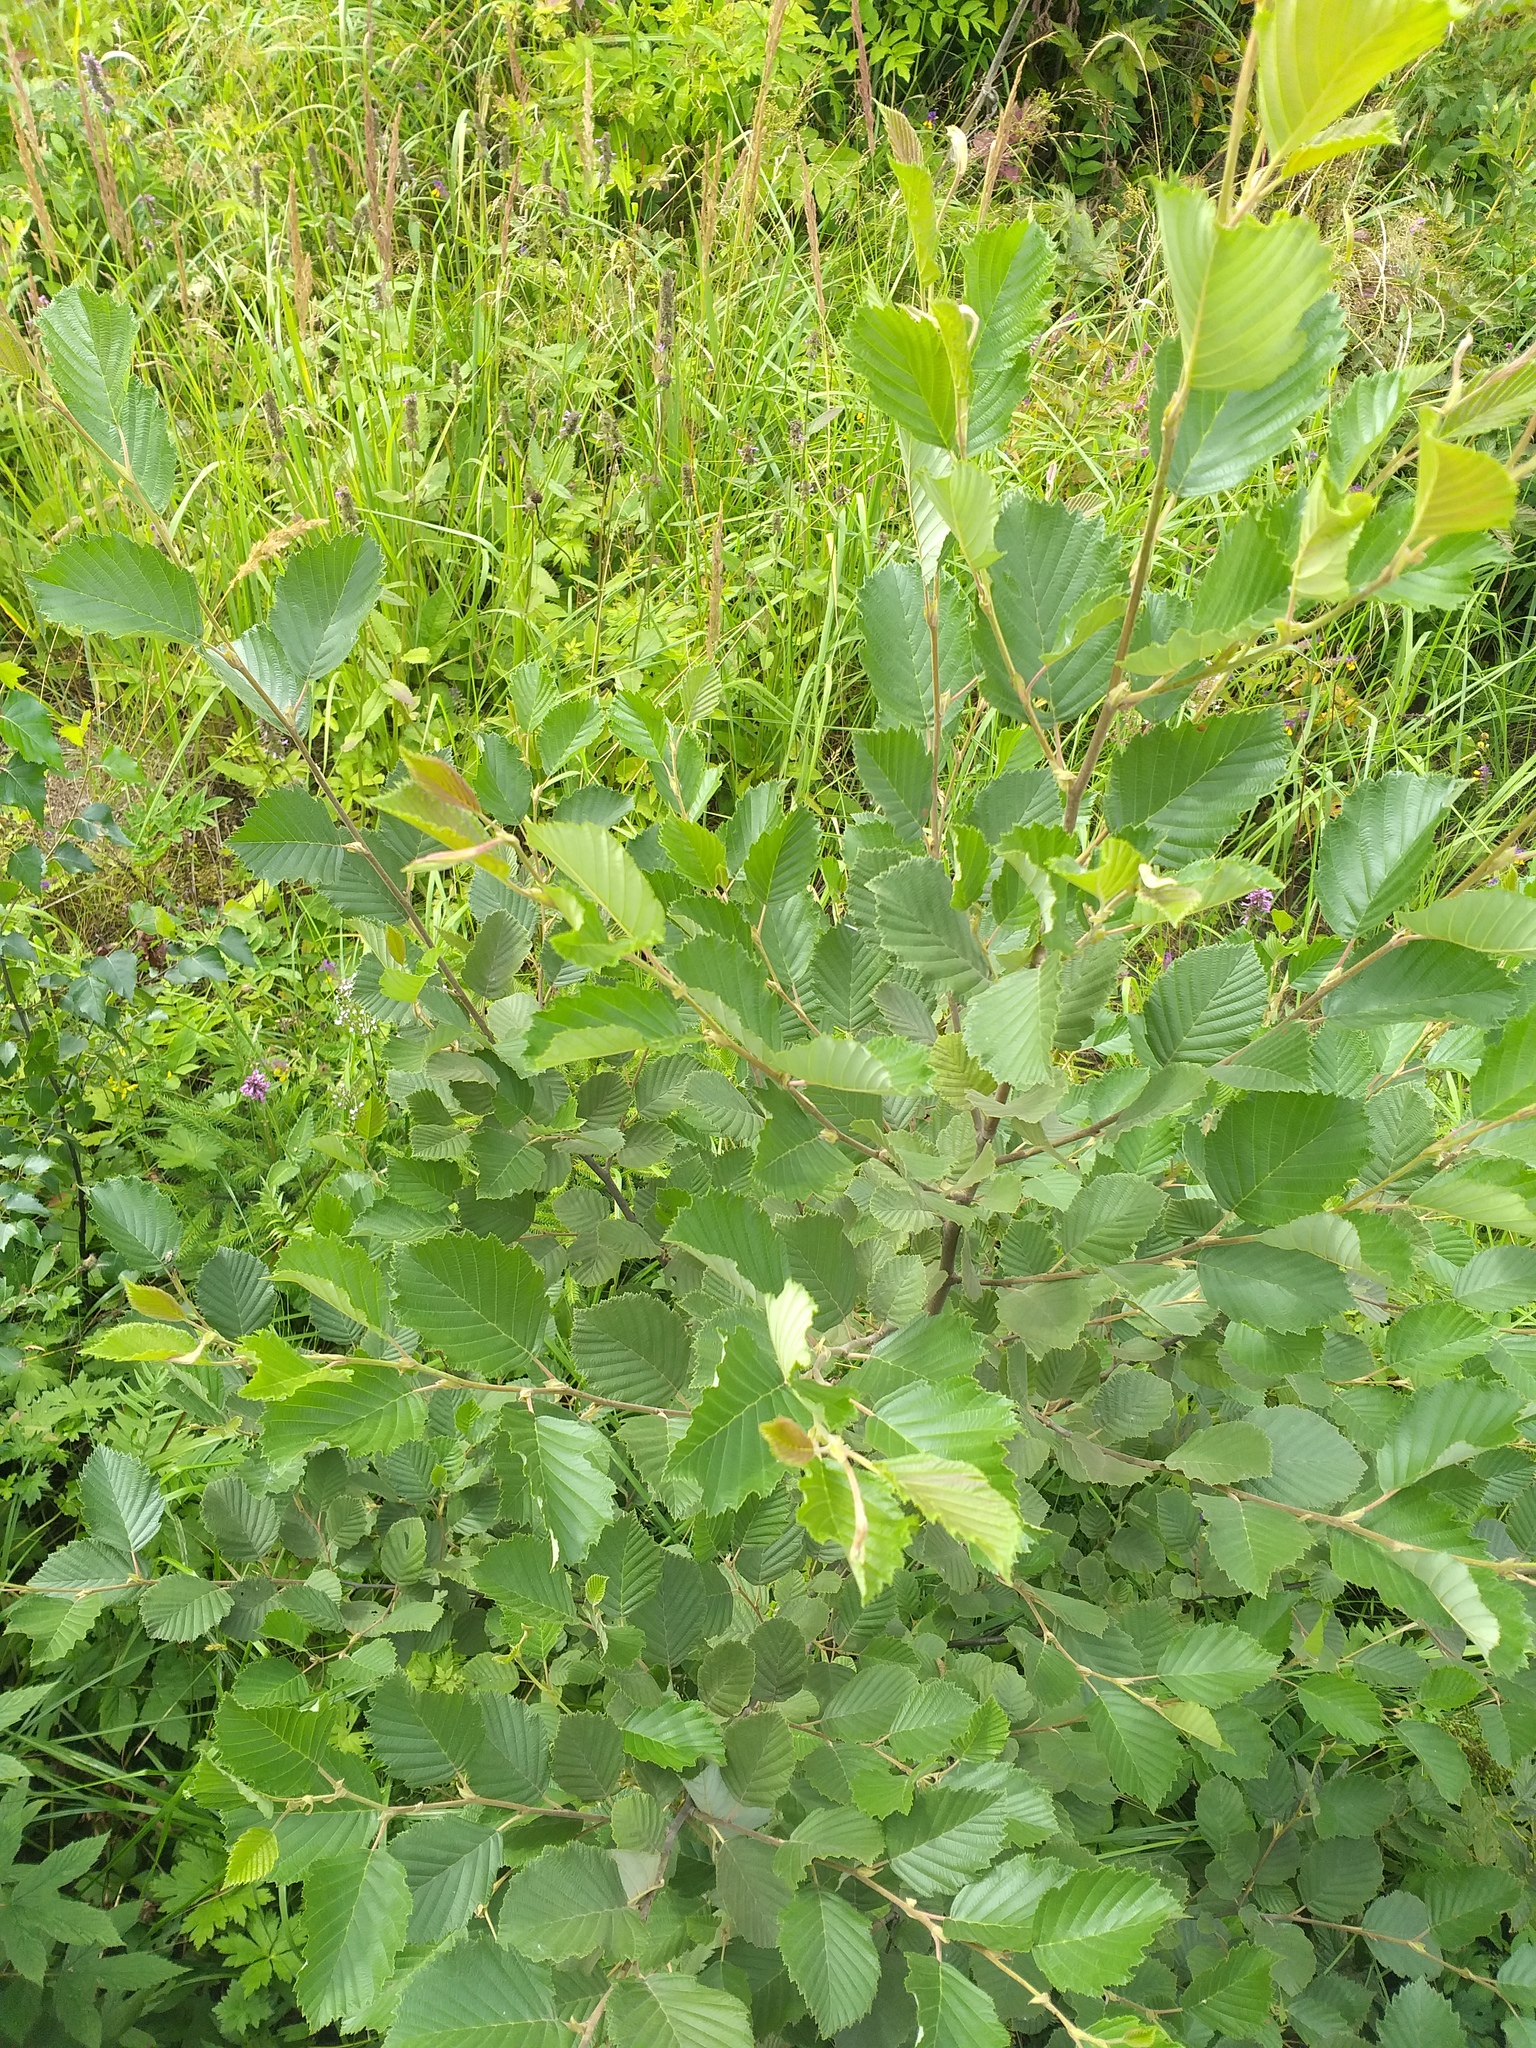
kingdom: Plantae
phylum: Tracheophyta
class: Magnoliopsida
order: Fagales
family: Betulaceae
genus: Alnus
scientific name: Alnus incana
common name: Grey alder
